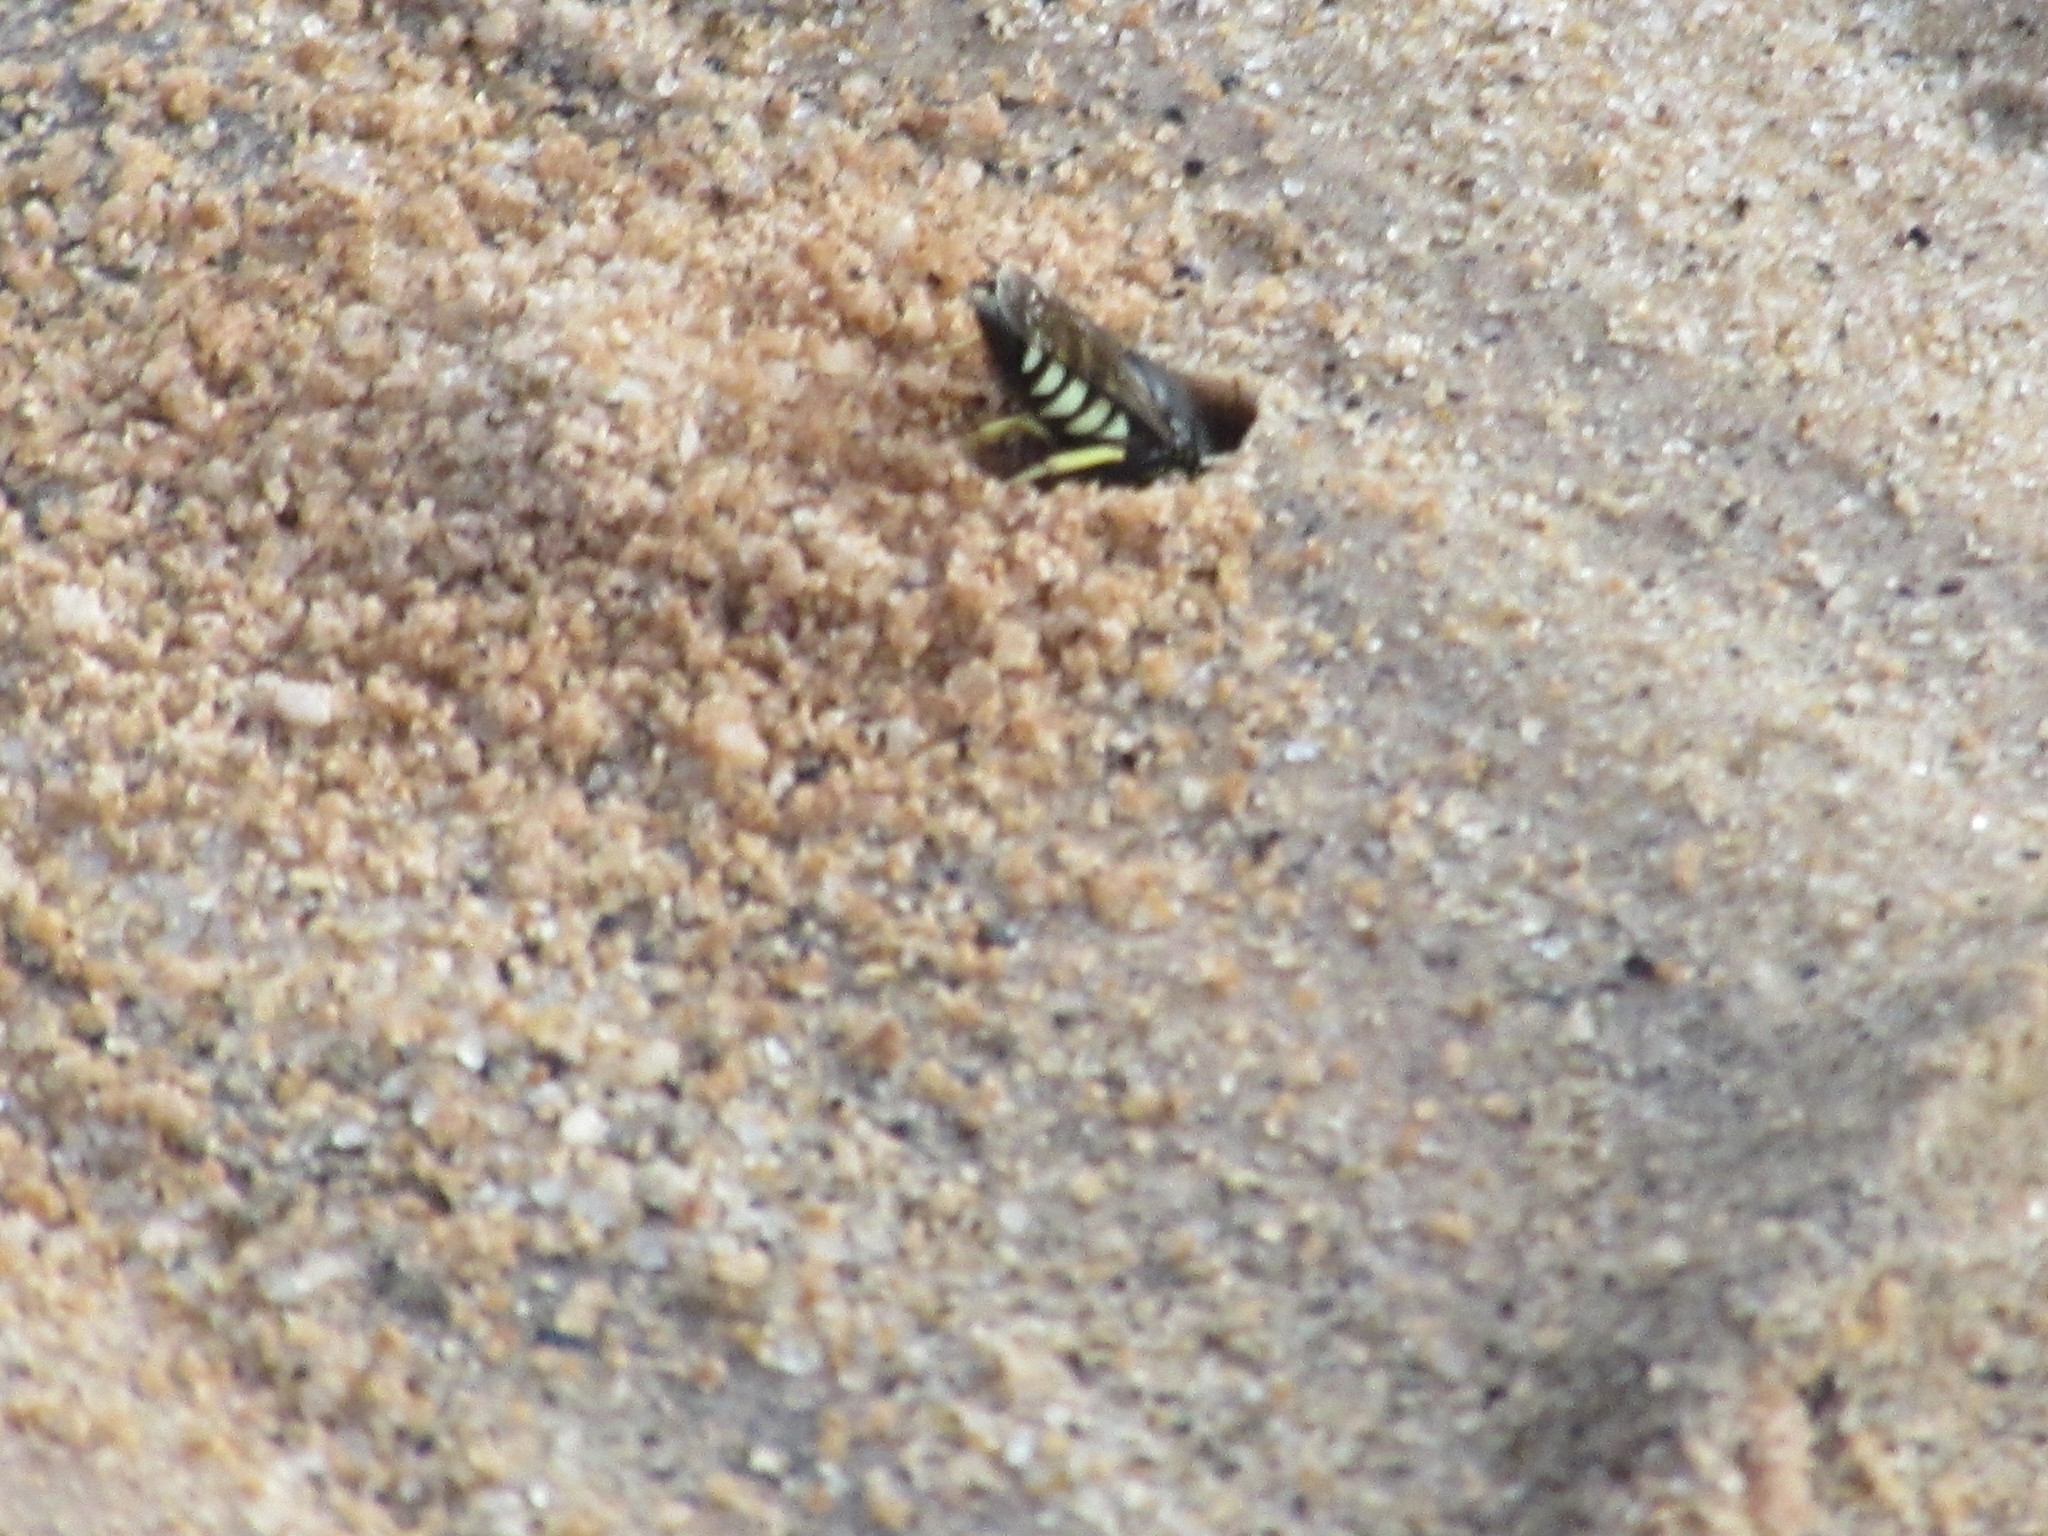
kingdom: Animalia
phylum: Arthropoda
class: Insecta
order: Hymenoptera
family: Crabronidae
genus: Bicyrtes
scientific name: Bicyrtes quadrifasciatus
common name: Four-banded stink bug hunter wasp
